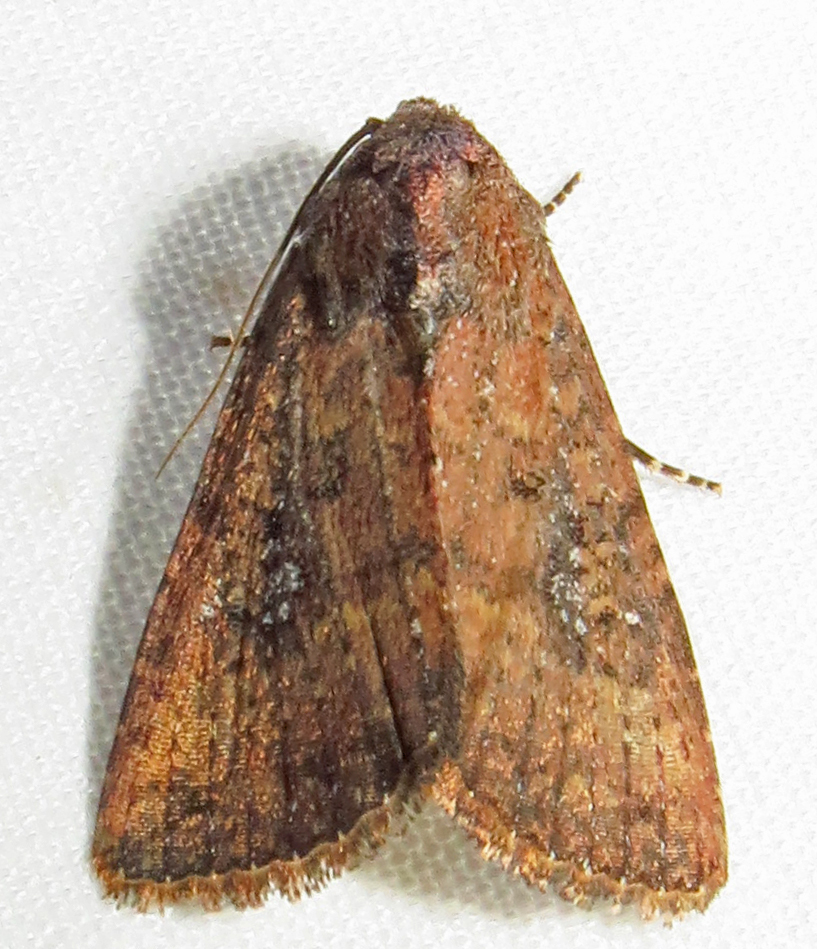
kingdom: Animalia
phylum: Arthropoda
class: Insecta
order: Lepidoptera
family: Noctuidae
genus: Condica
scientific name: Condica mobilis
